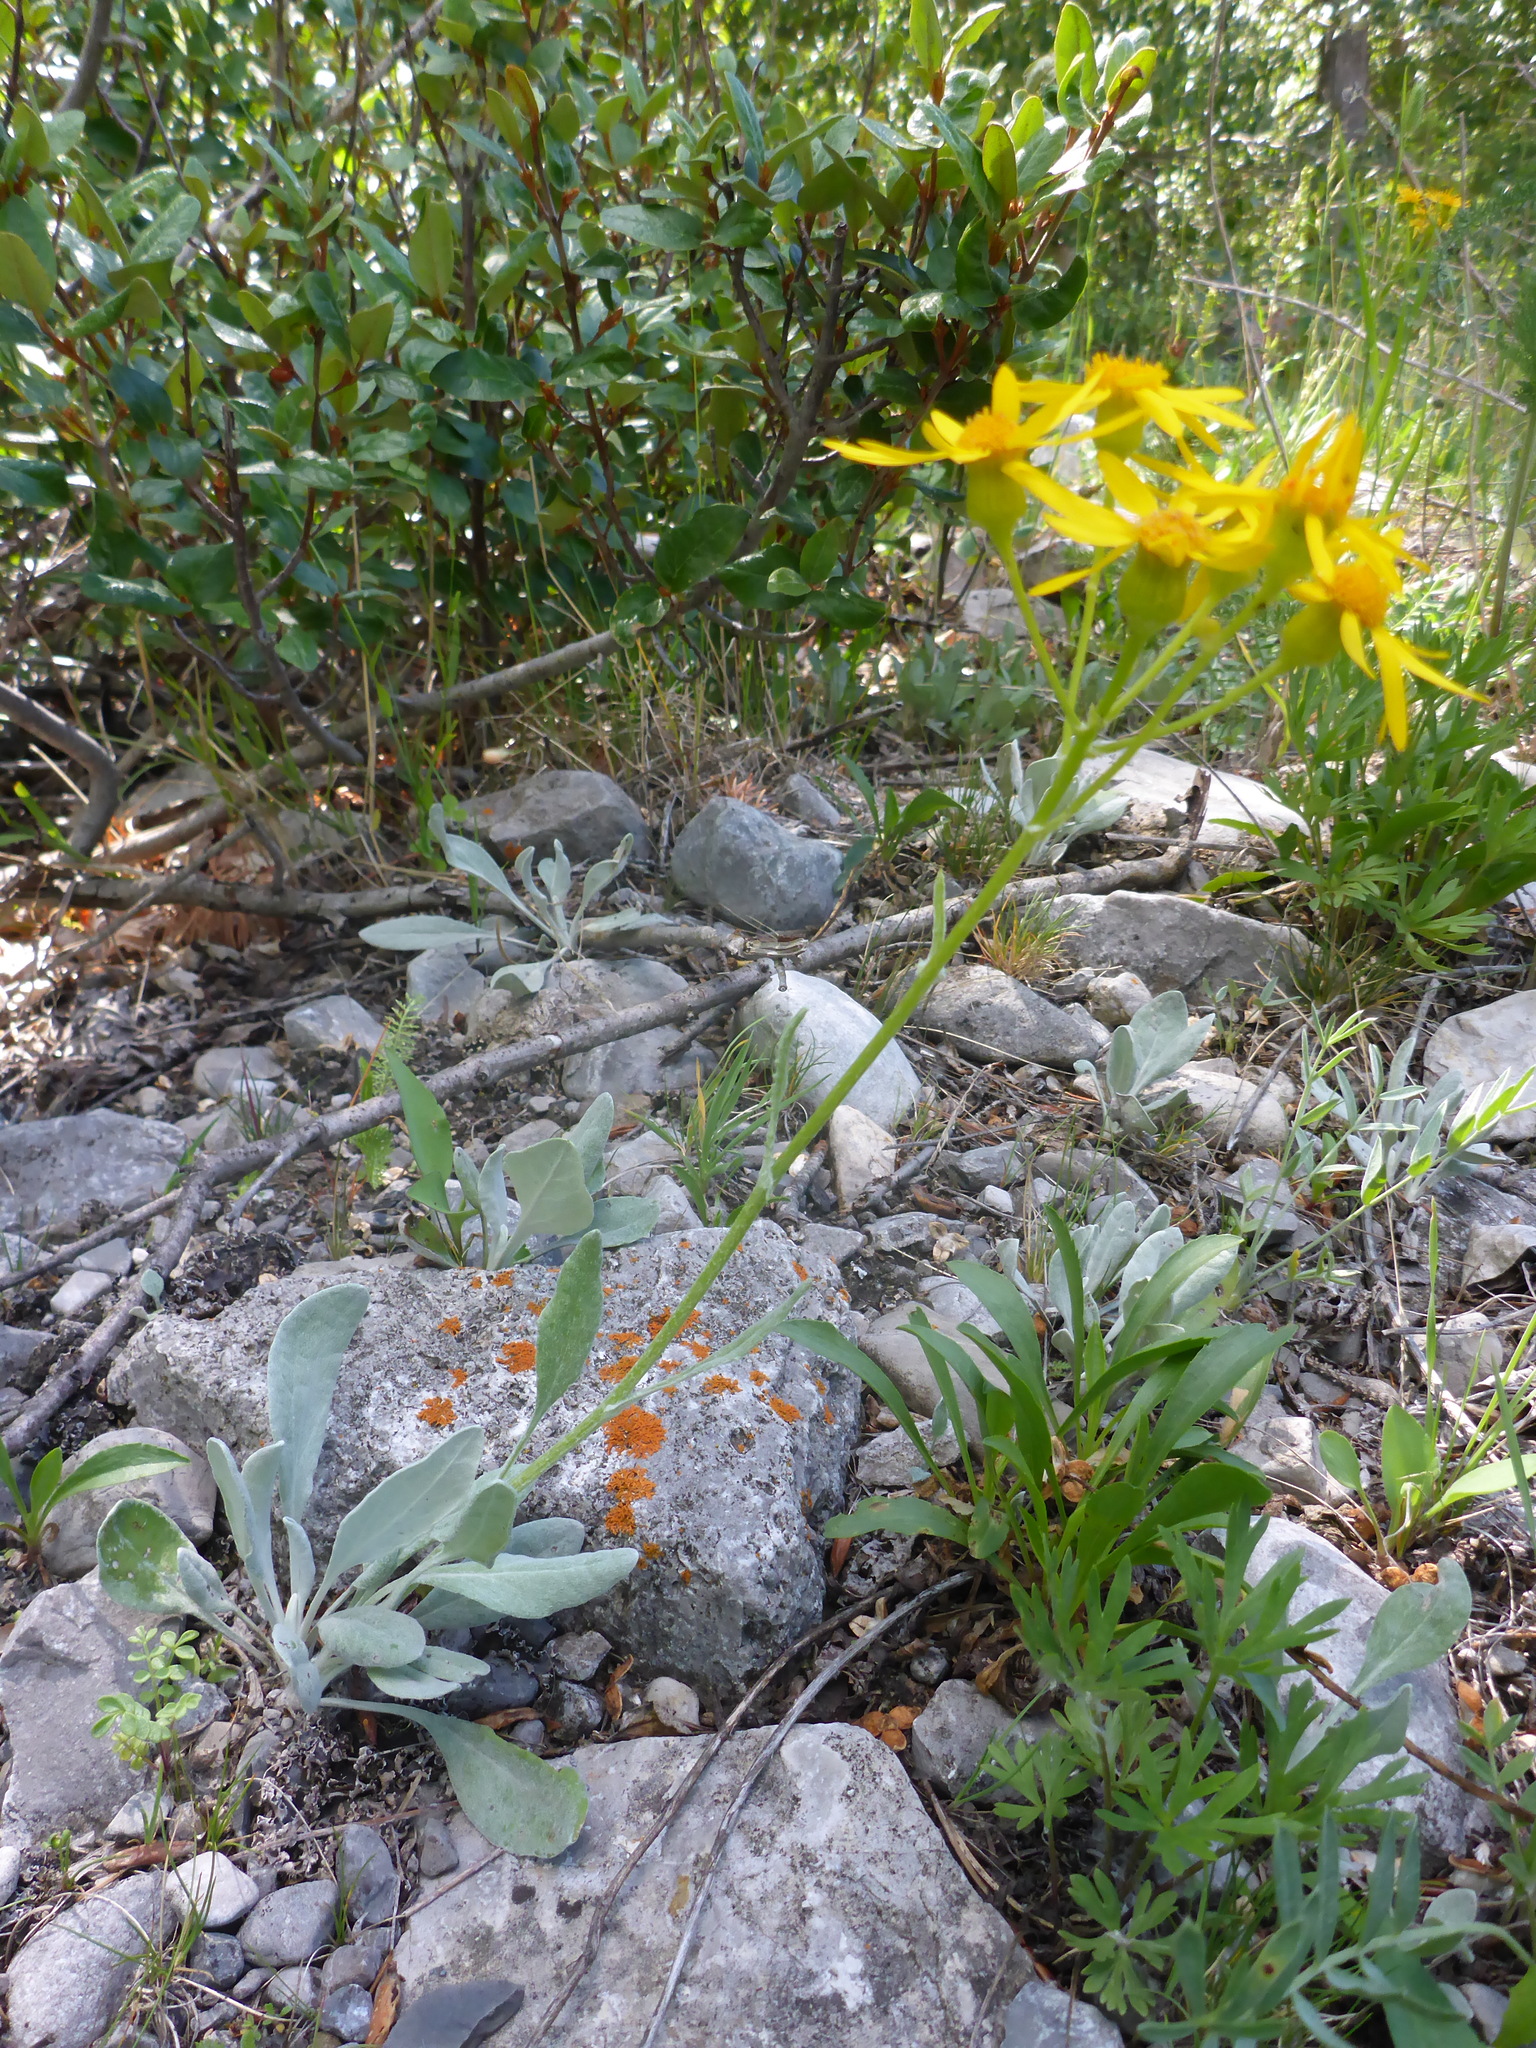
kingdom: Plantae
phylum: Tracheophyta
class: Magnoliopsida
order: Asterales
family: Asteraceae
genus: Packera
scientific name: Packera cana
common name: Woolly groundsel
